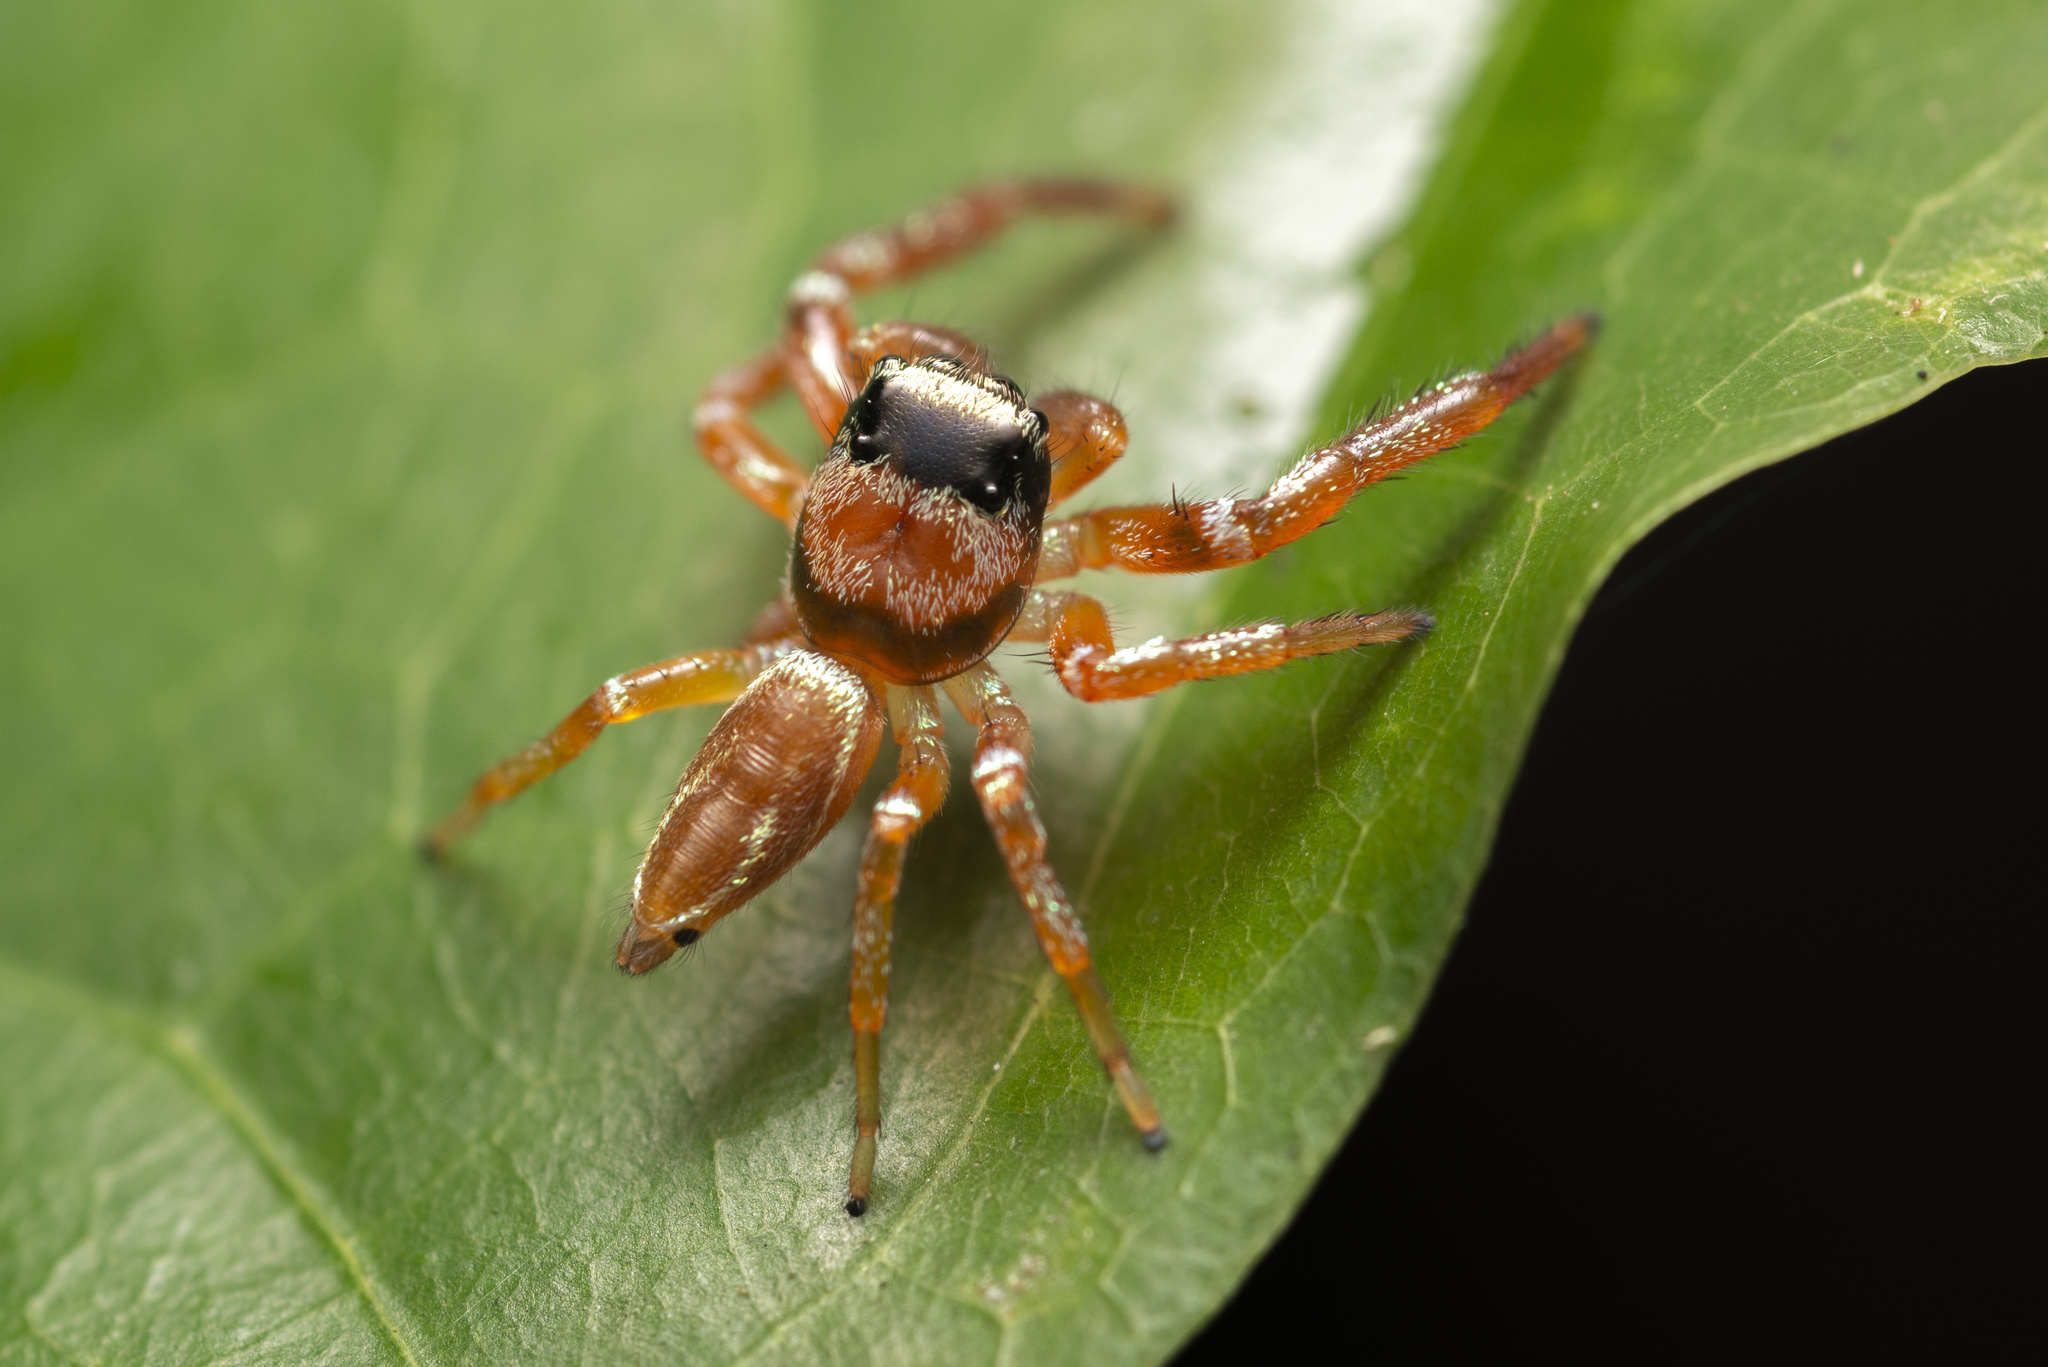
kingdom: Animalia
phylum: Arthropoda
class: Arachnida
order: Araneae
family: Salticidae
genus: Thiania
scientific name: Thiania suboppressa
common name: Jumping spider
